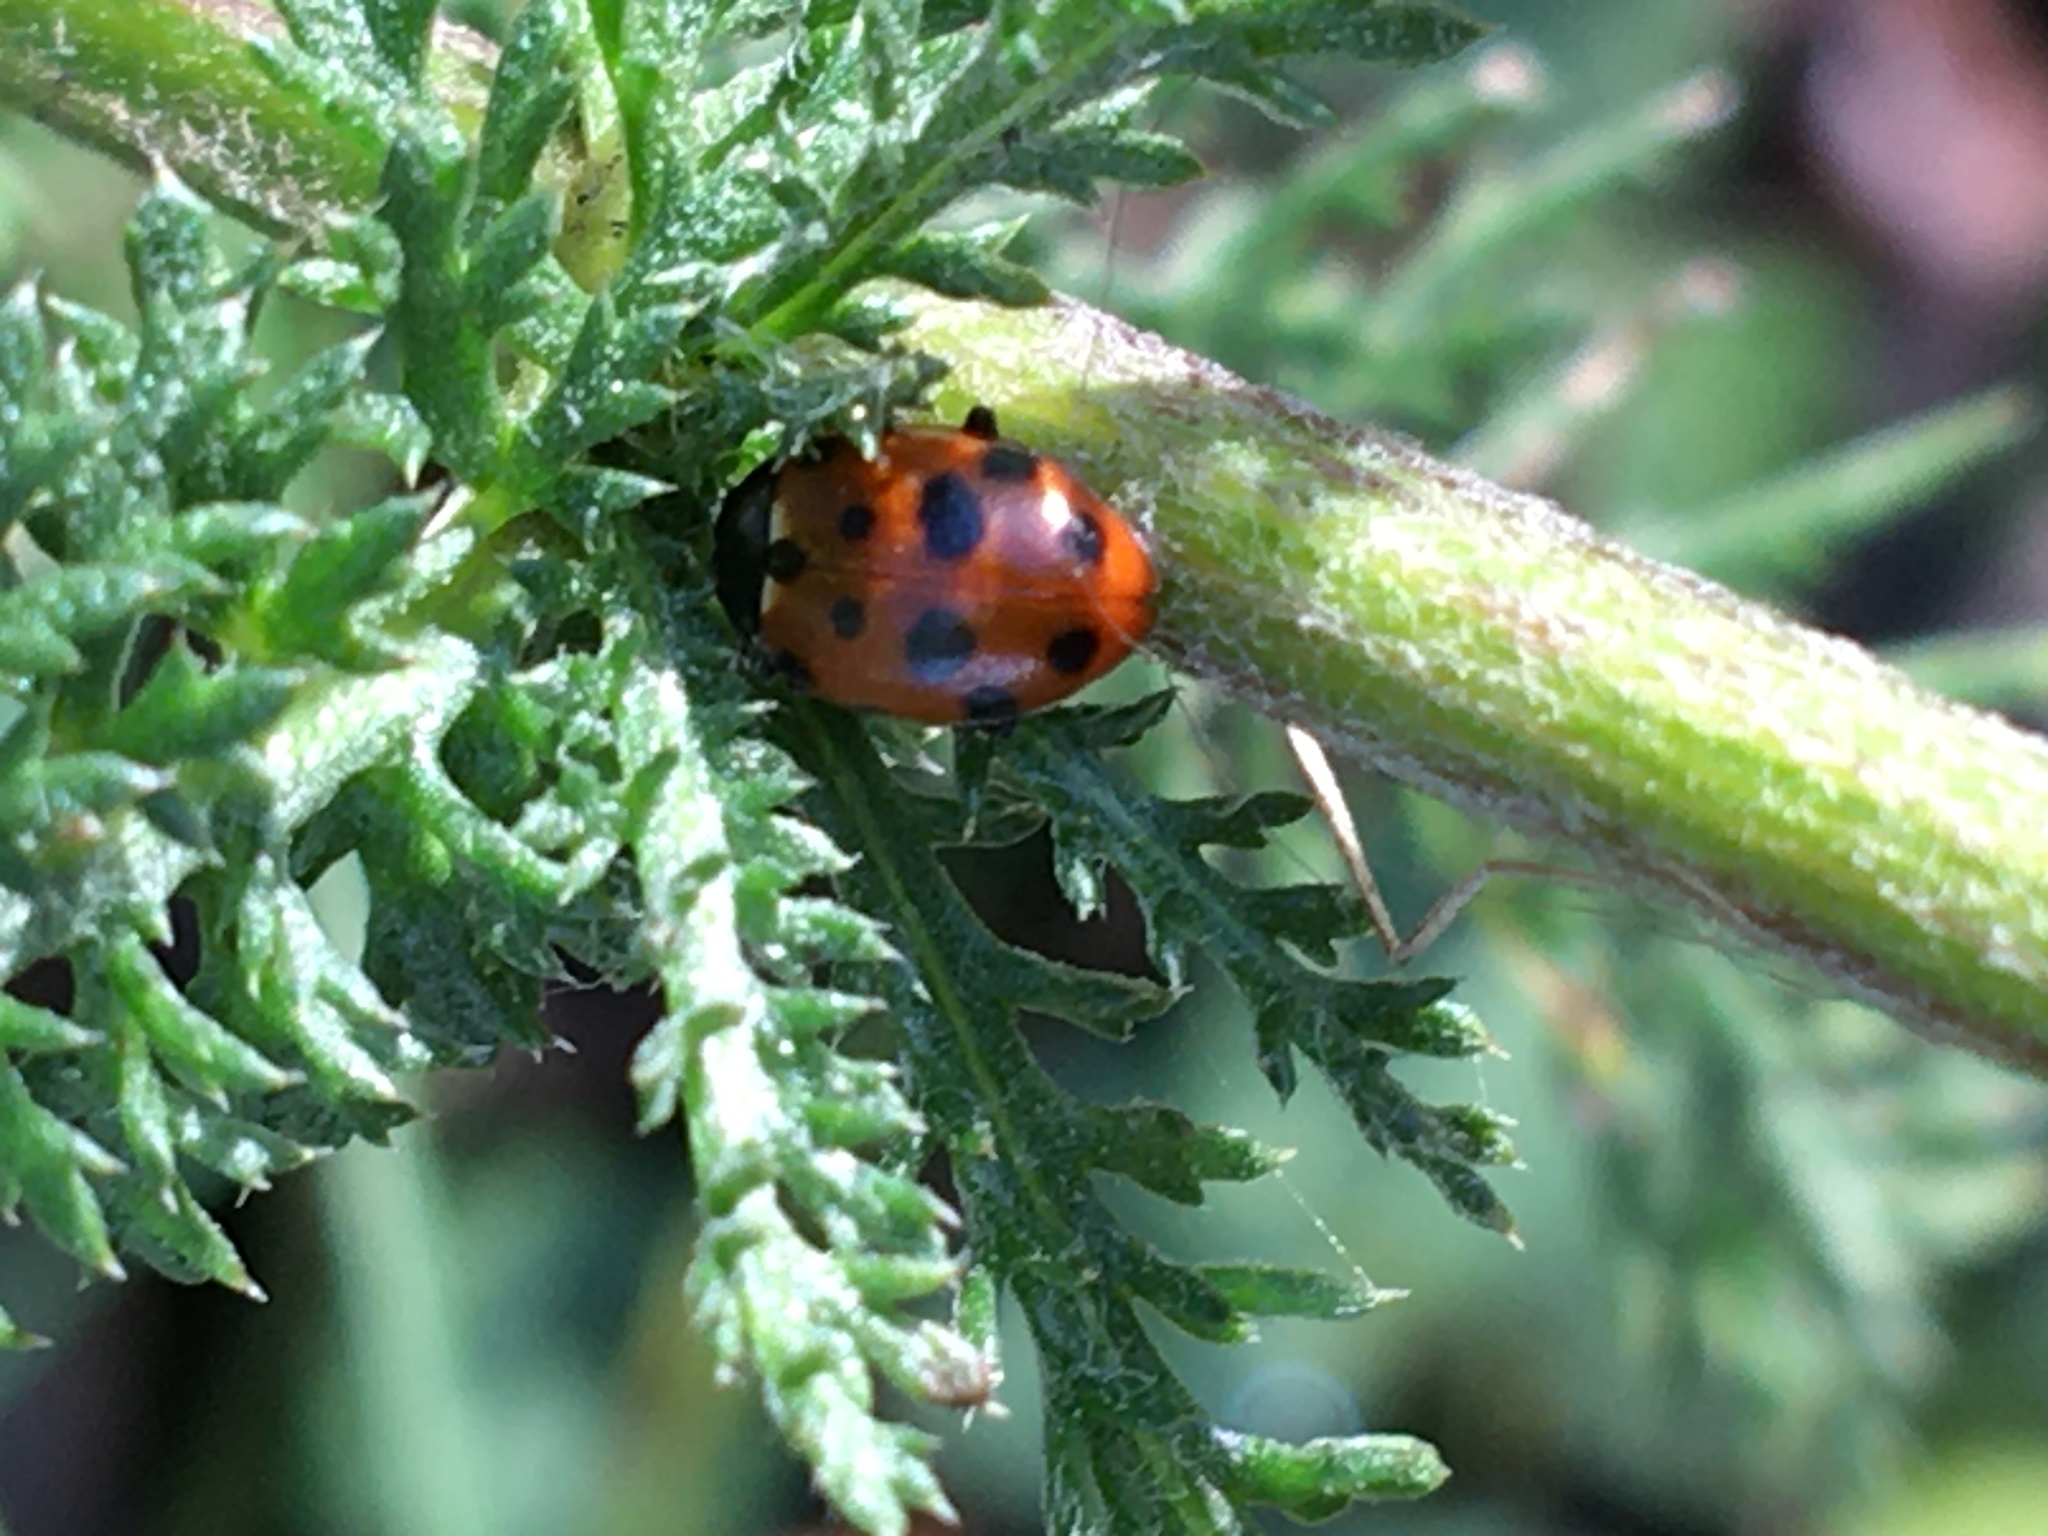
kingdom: Animalia
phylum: Arthropoda
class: Insecta
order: Coleoptera
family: Coccinellidae
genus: Hippodamia
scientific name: Hippodamia variegata
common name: Ladybird beetle
